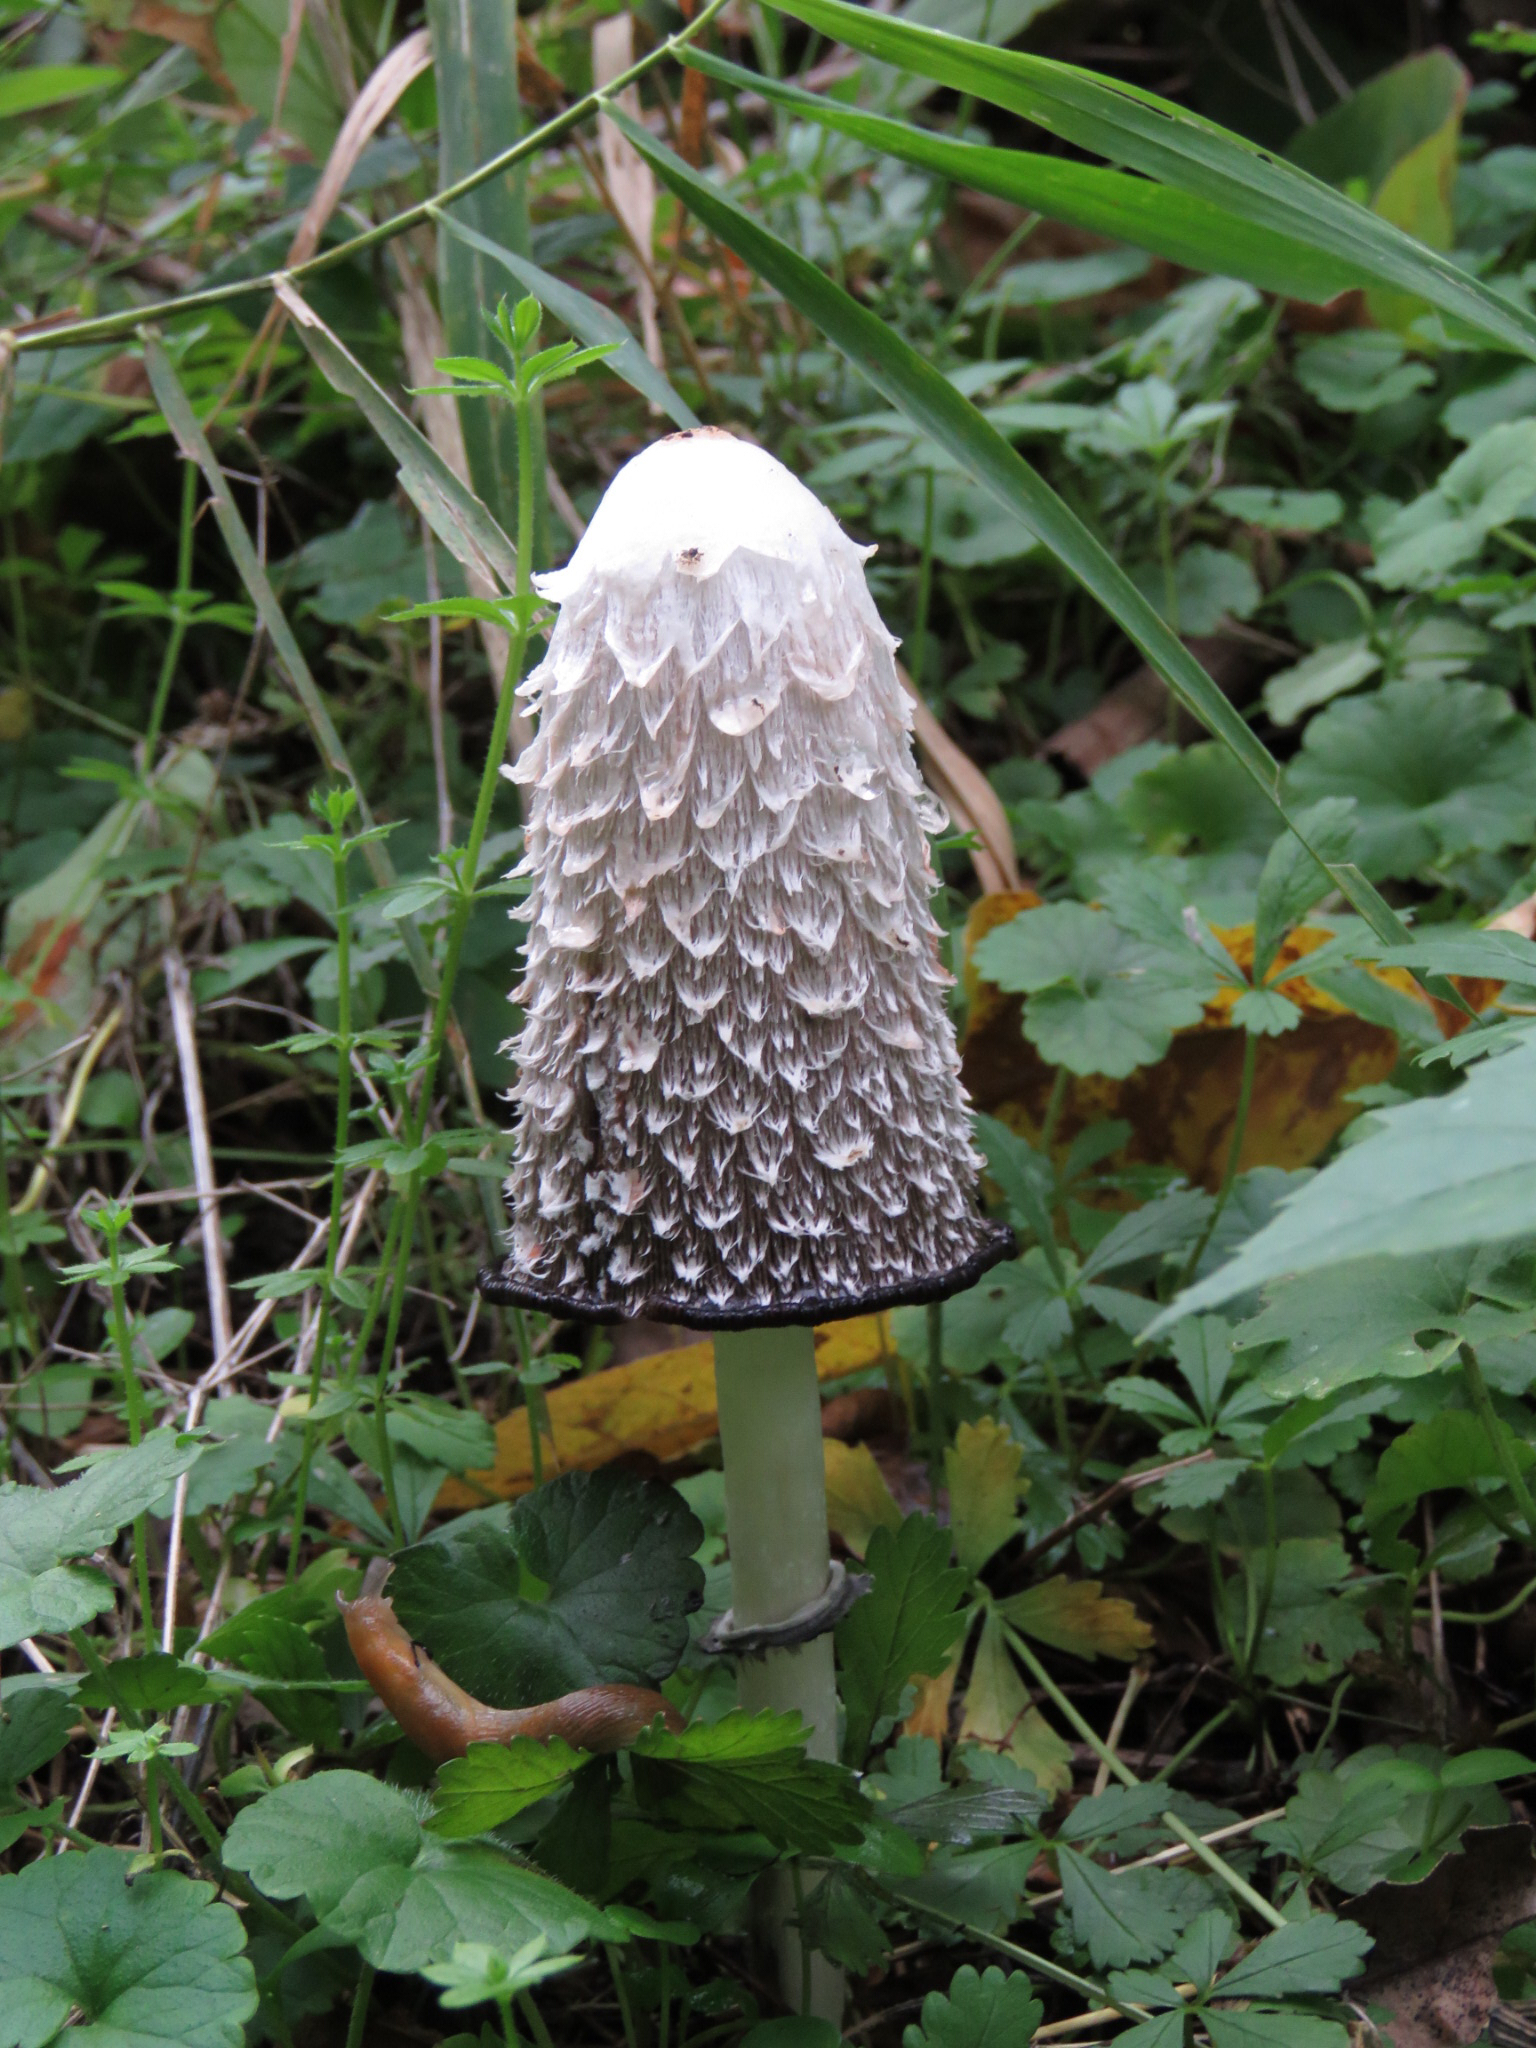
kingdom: Fungi
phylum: Basidiomycota
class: Agaricomycetes
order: Agaricales
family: Agaricaceae
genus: Coprinus
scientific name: Coprinus comatus
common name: Lawyer's wig
